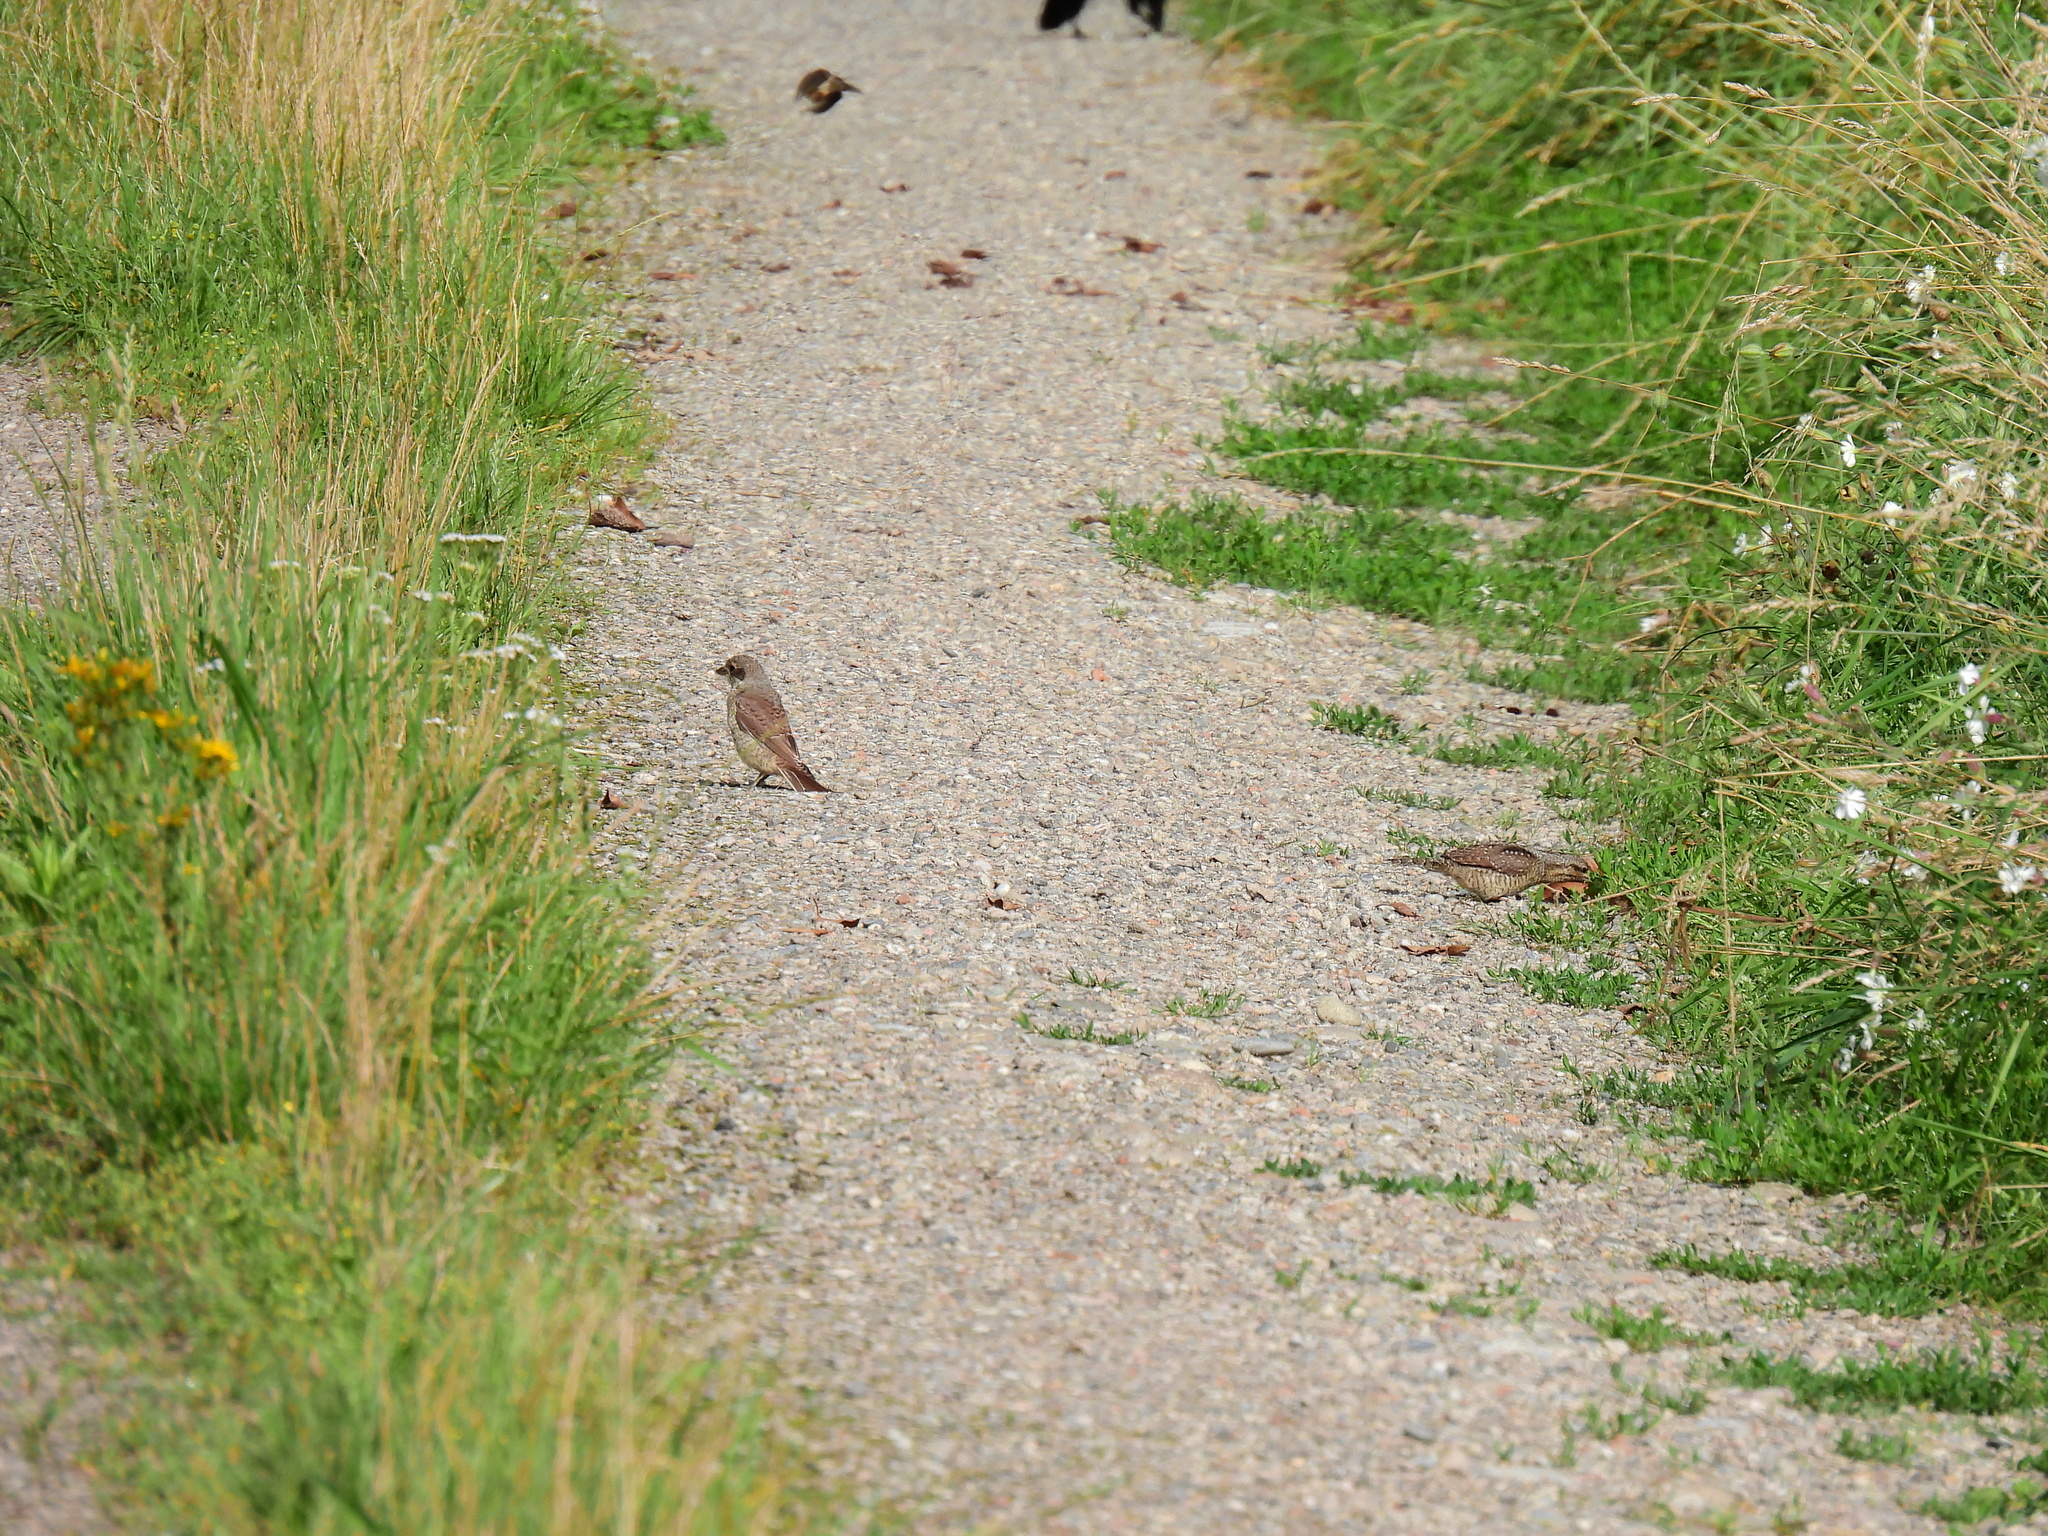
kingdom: Animalia
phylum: Chordata
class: Aves
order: Piciformes
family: Picidae
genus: Jynx
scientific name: Jynx torquilla
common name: Eurasian wryneck
